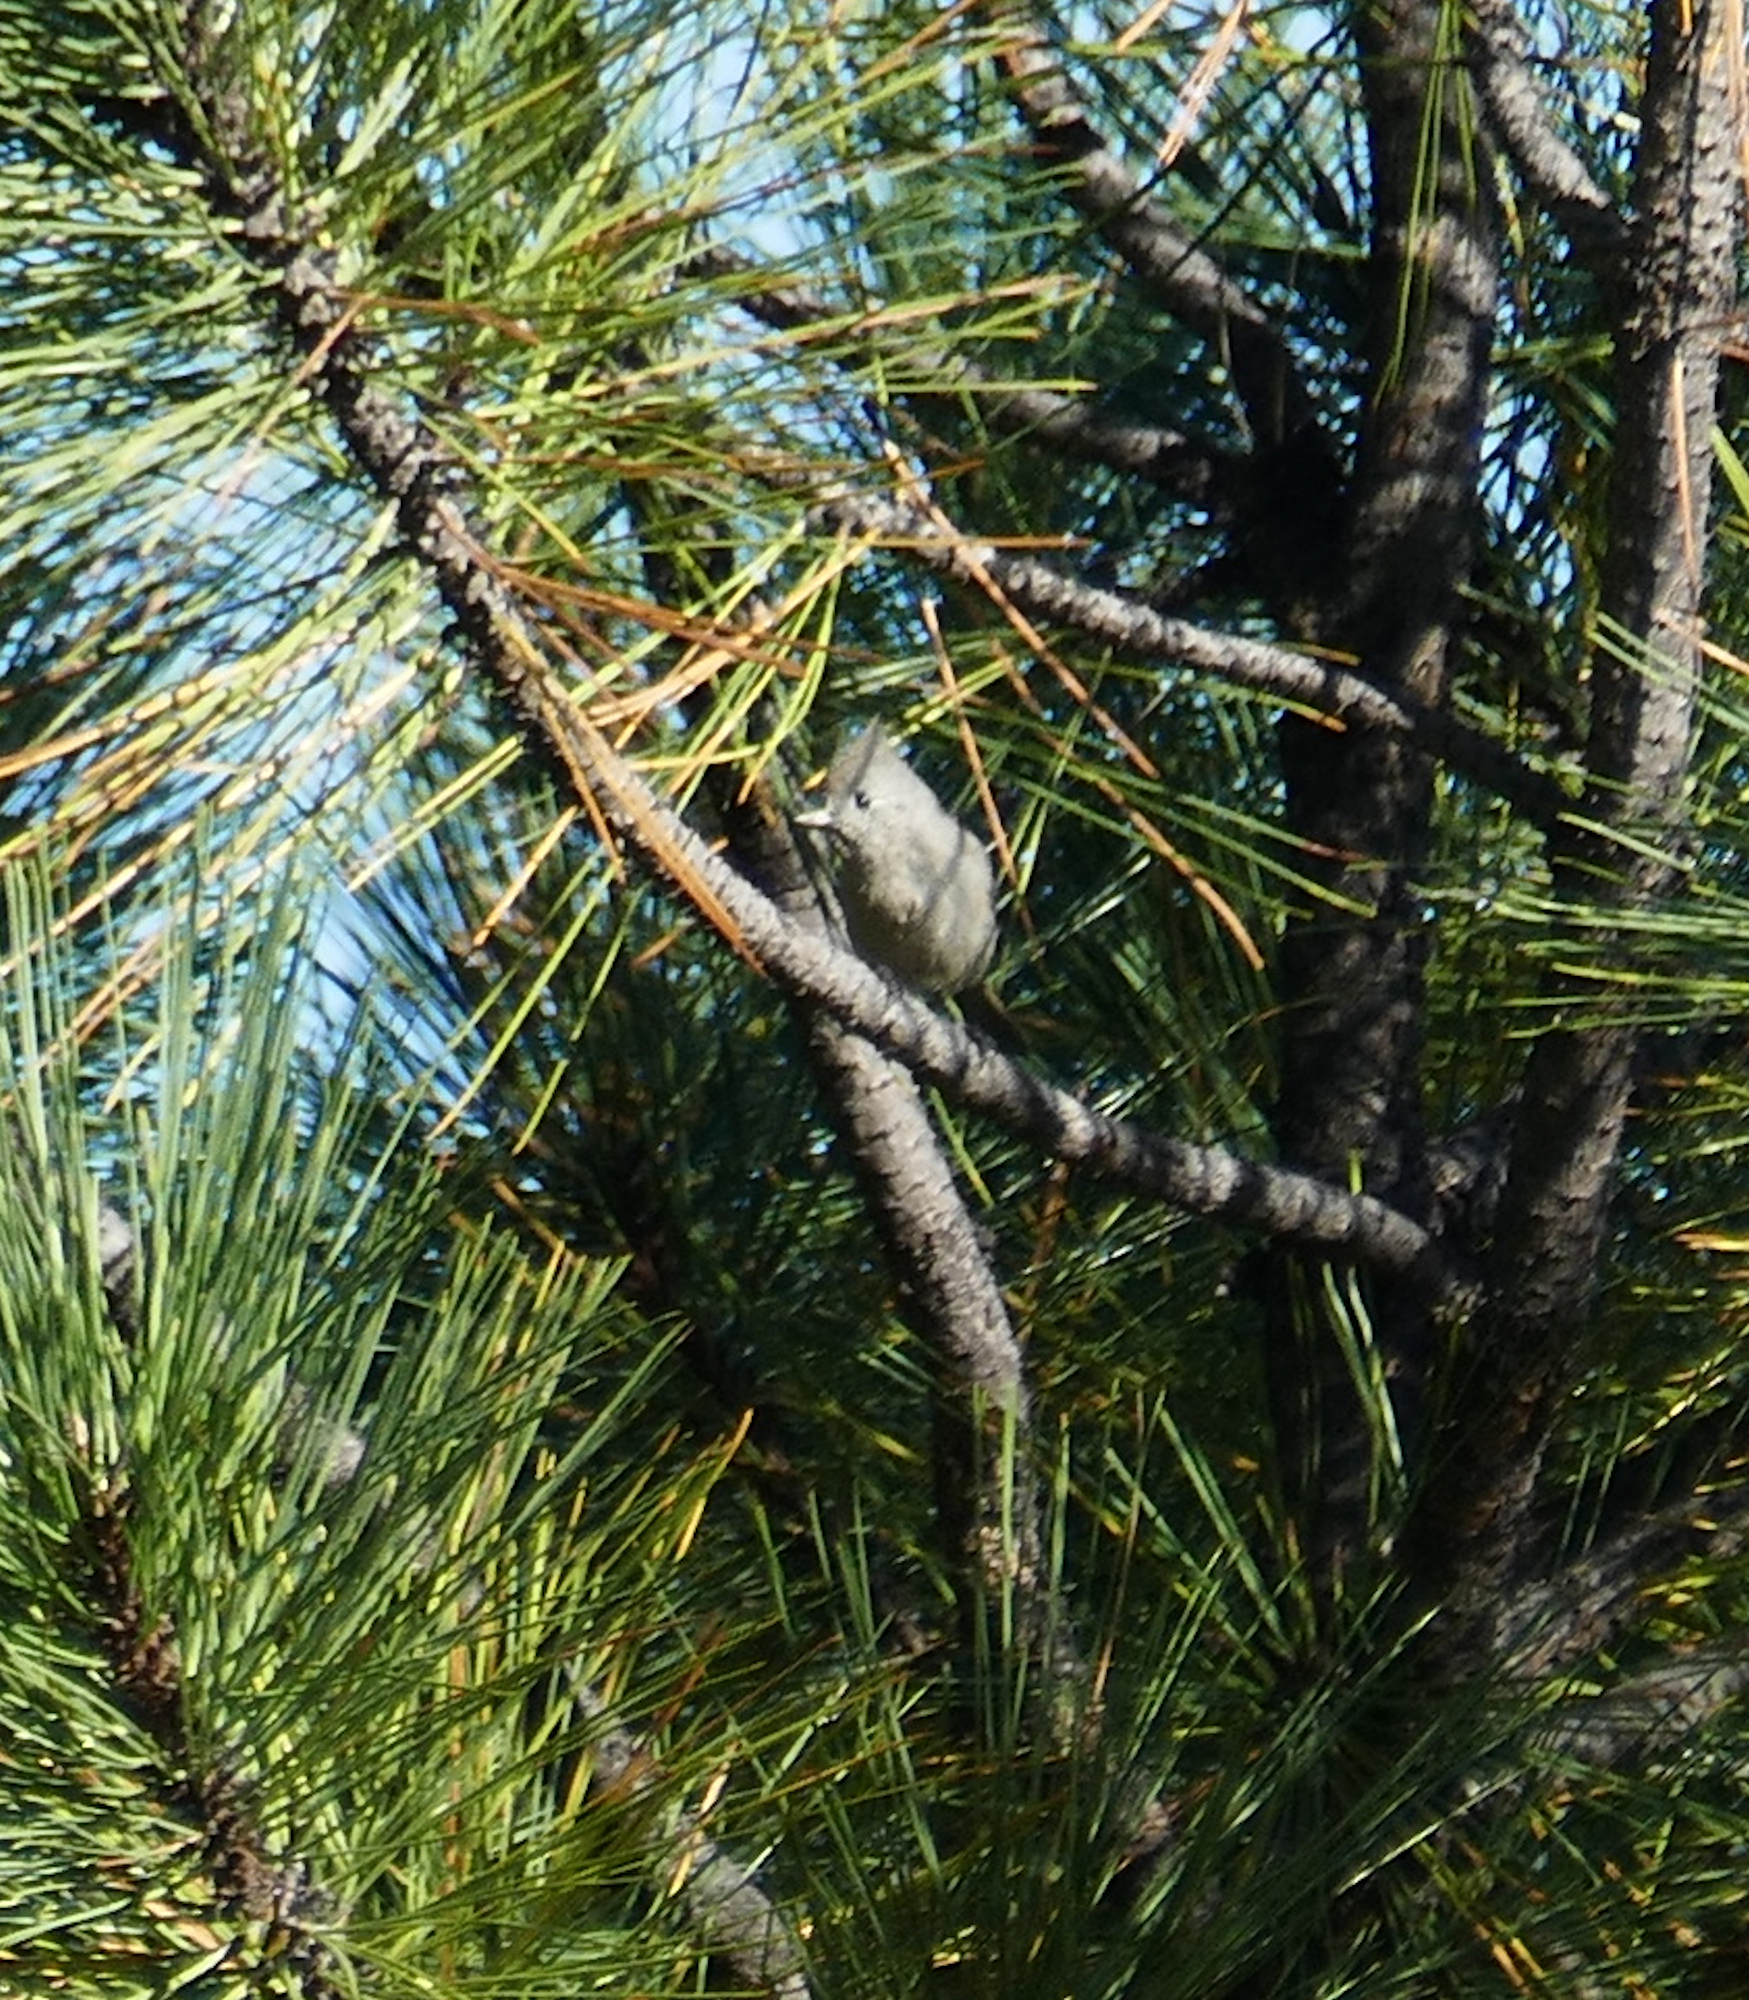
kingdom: Animalia
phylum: Chordata
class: Aves
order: Passeriformes
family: Paridae
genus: Baeolophus
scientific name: Baeolophus ridgwayi
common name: Juniper titmouse
